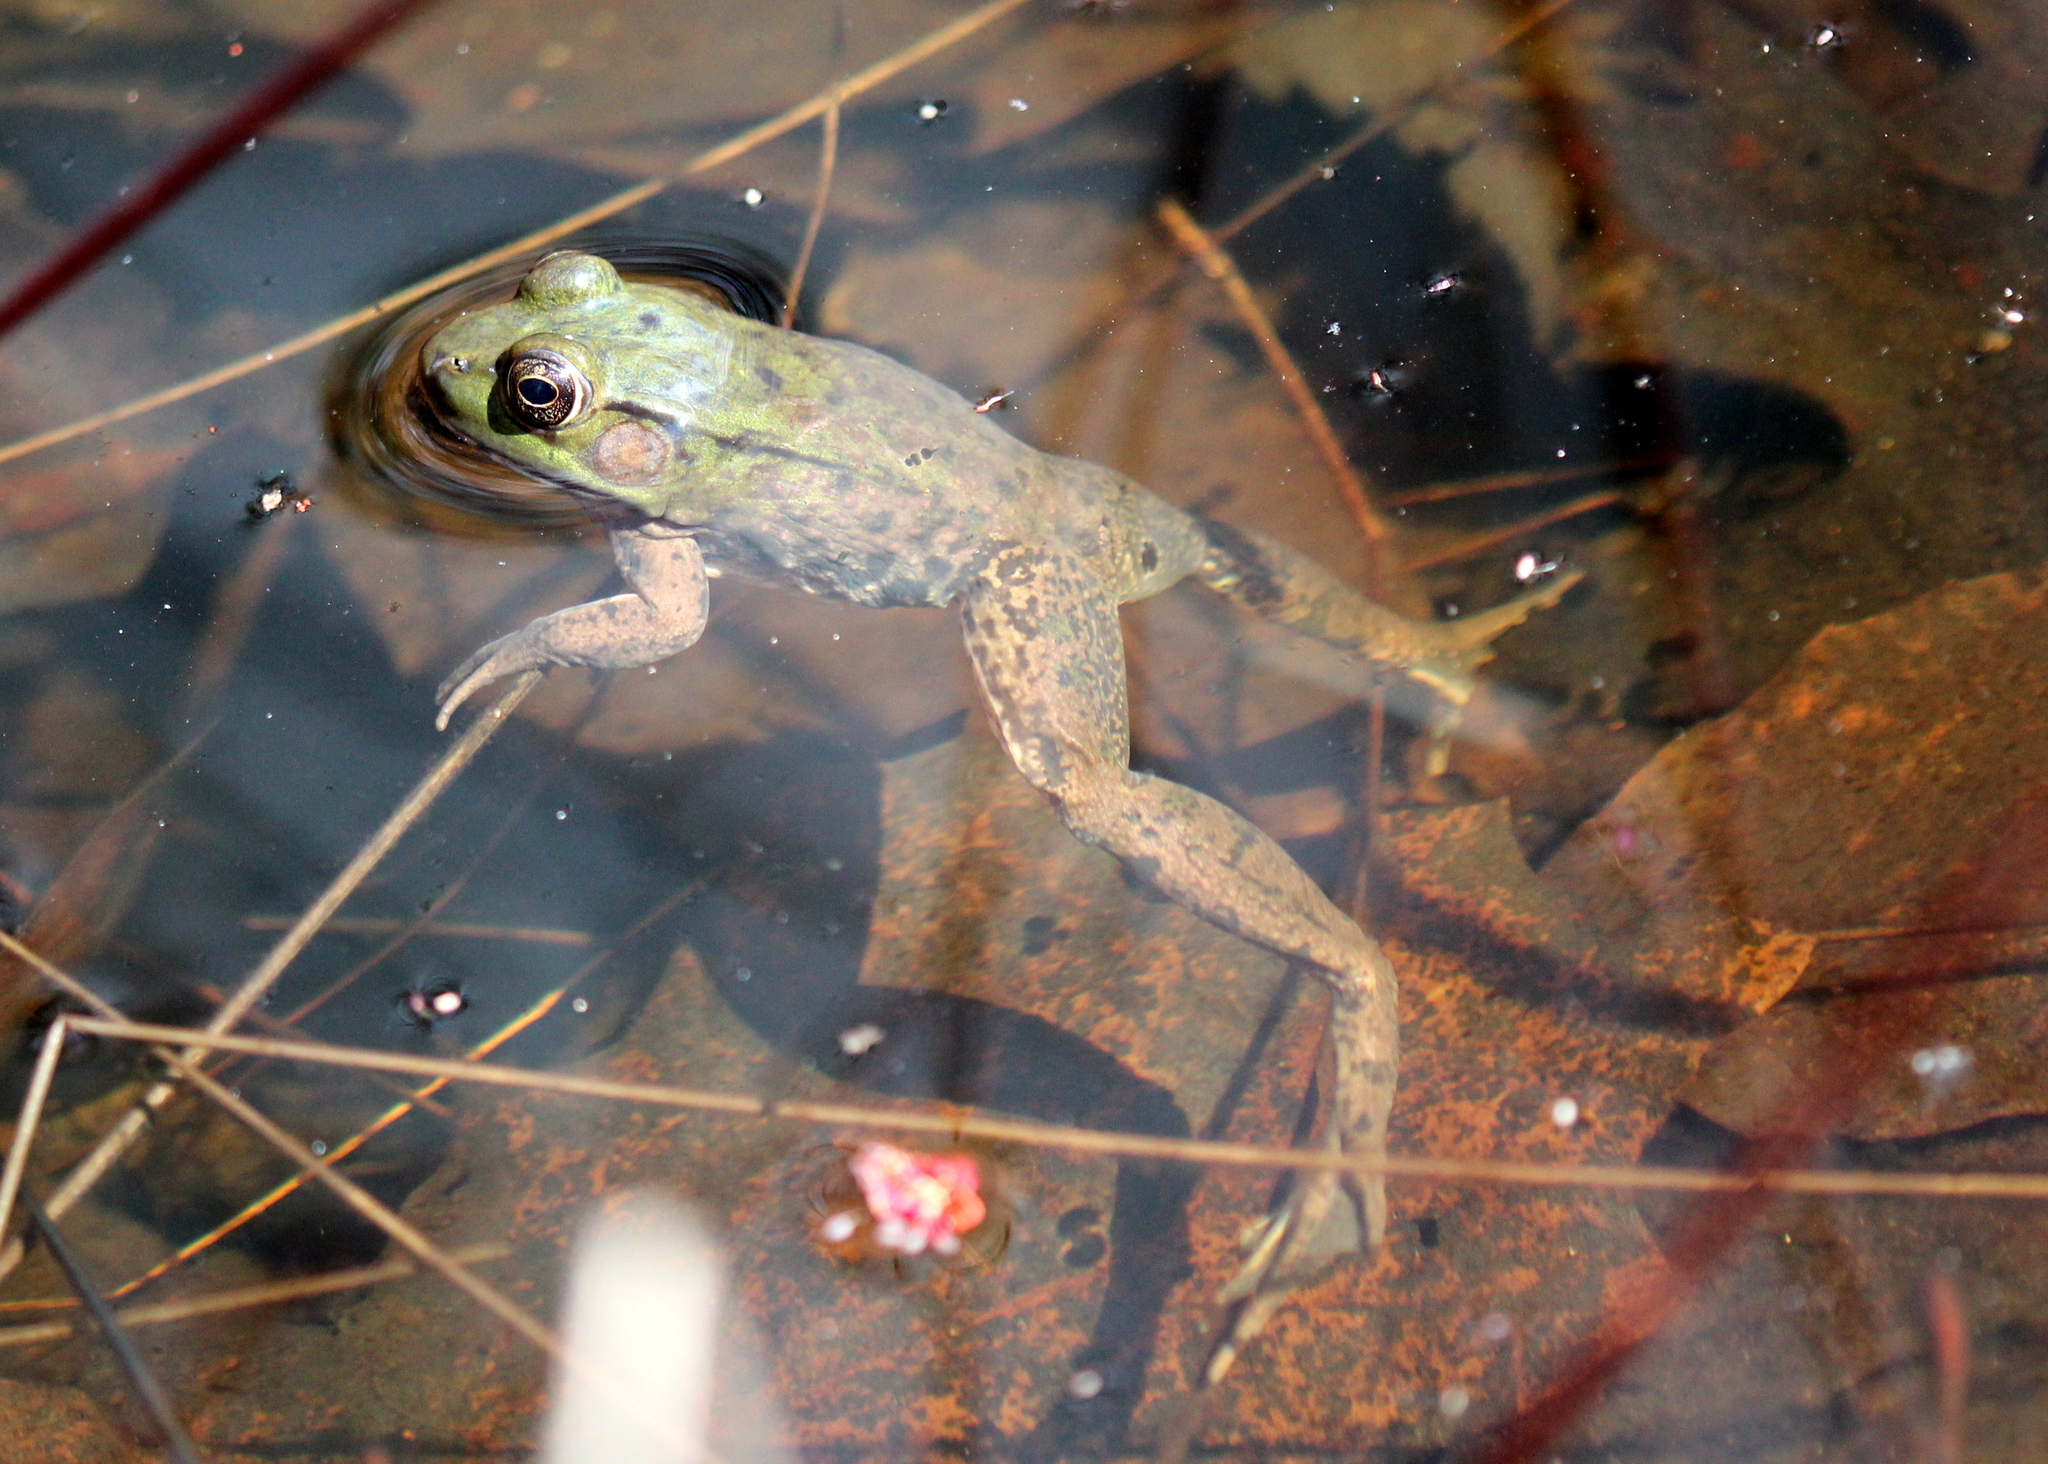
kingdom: Animalia
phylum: Chordata
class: Amphibia
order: Anura
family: Ranidae
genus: Lithobates
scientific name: Lithobates clamitans
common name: Green frog
